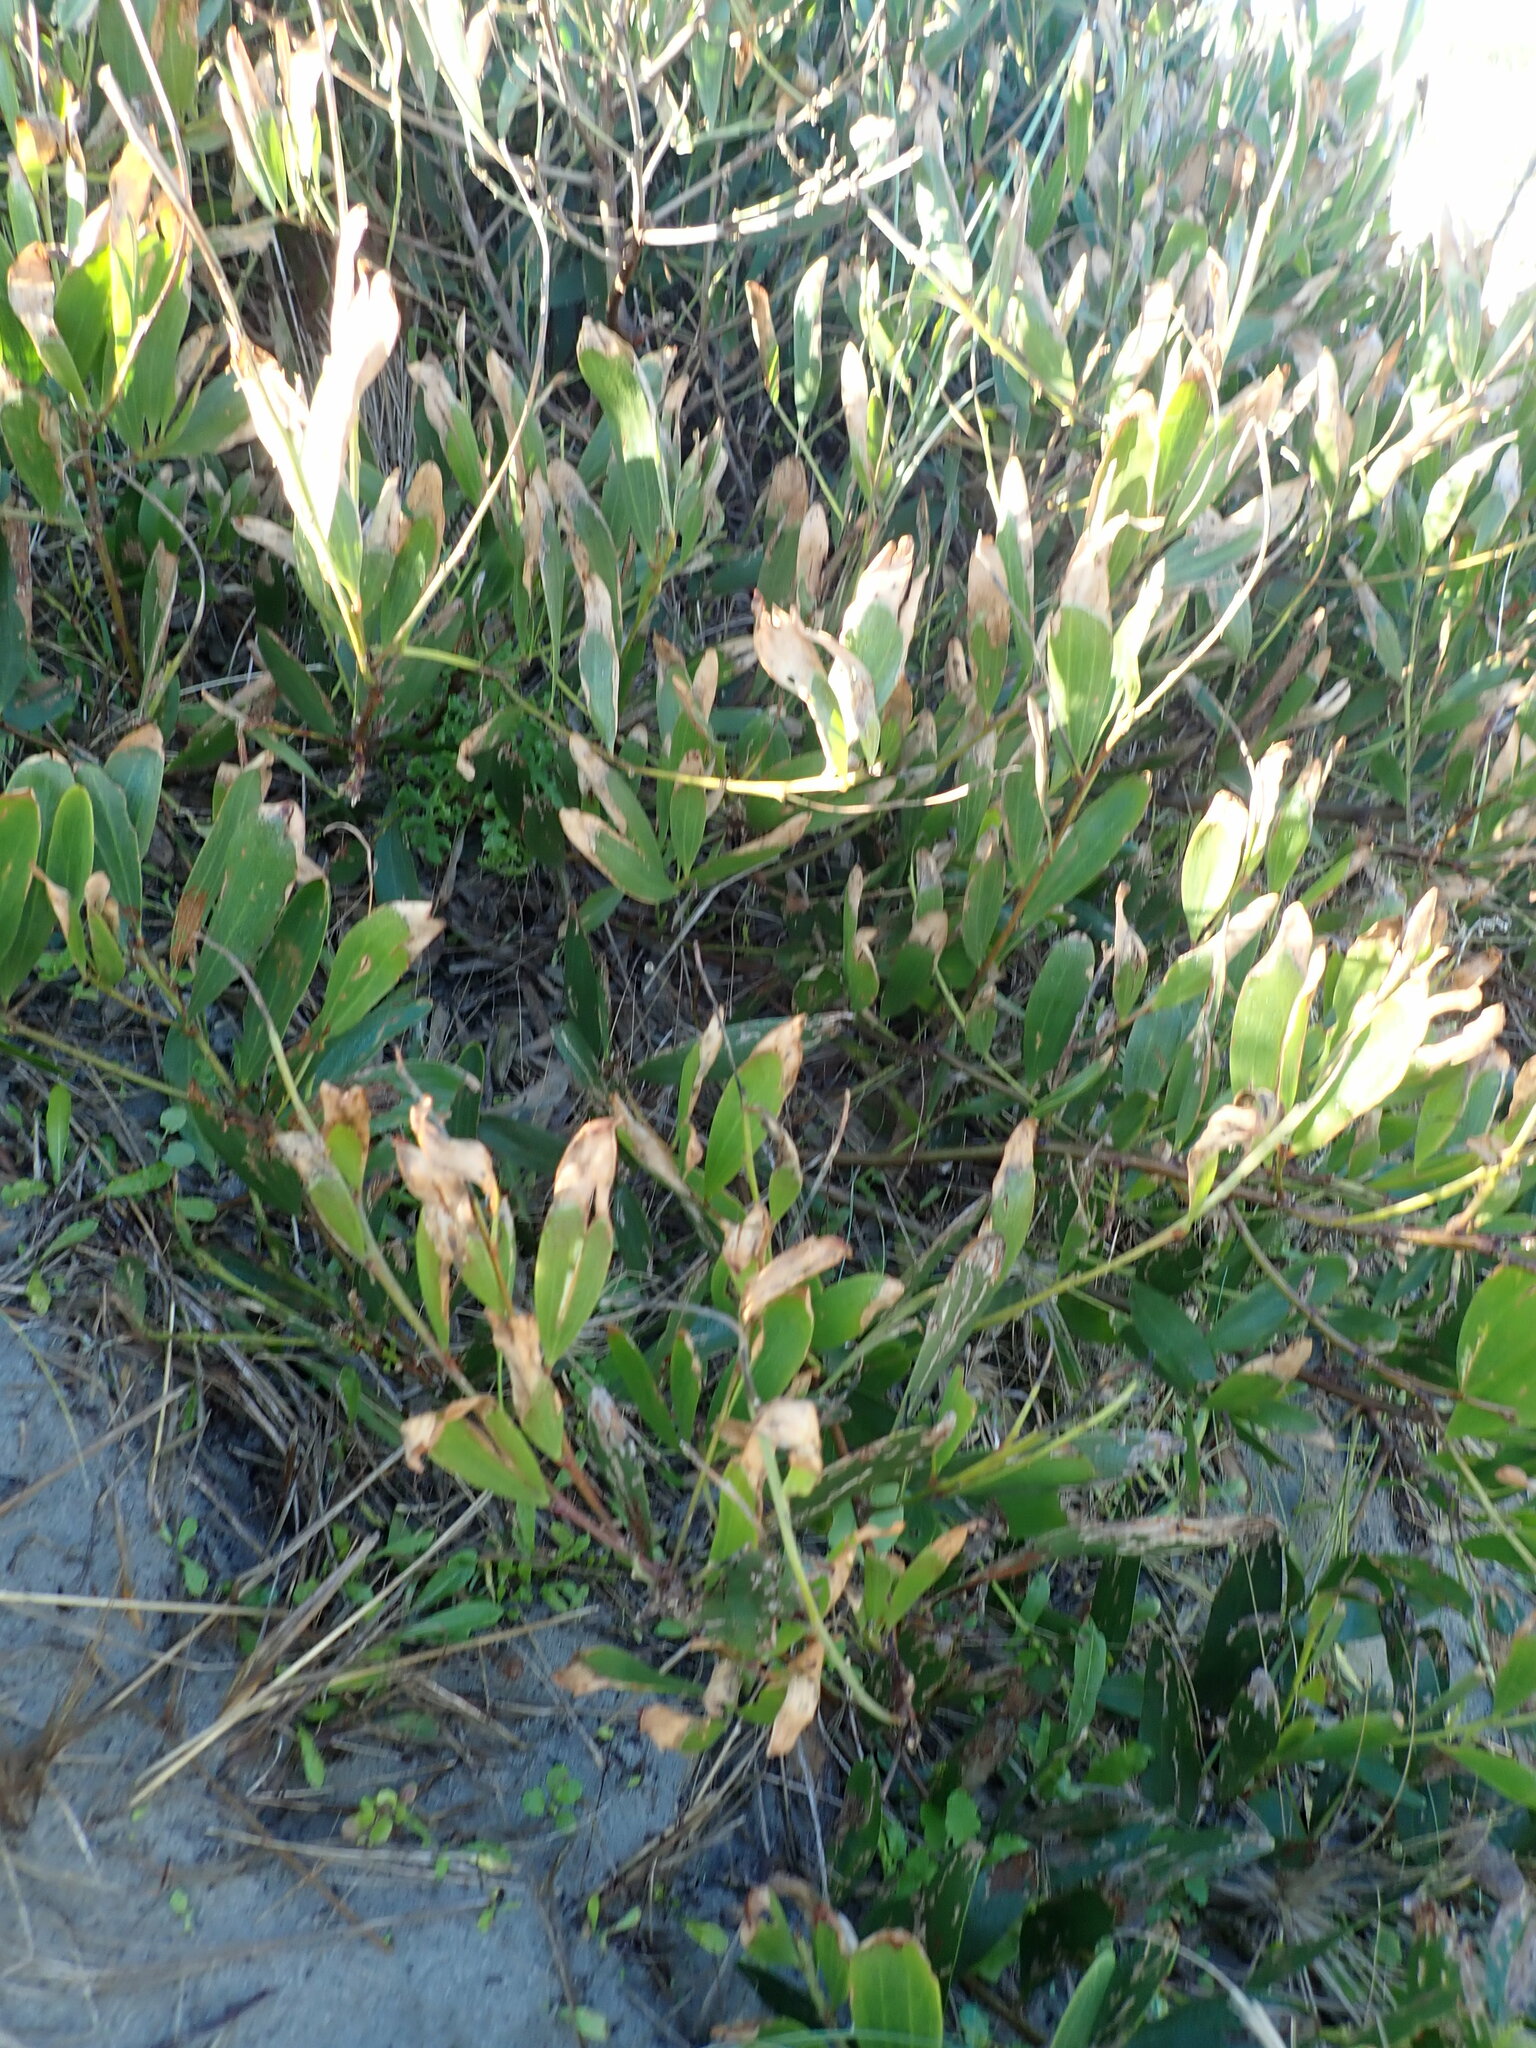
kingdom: Plantae
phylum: Tracheophyta
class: Magnoliopsida
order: Fabales
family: Fabaceae
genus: Acacia
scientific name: Acacia longifolia
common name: Sydney golden wattle
